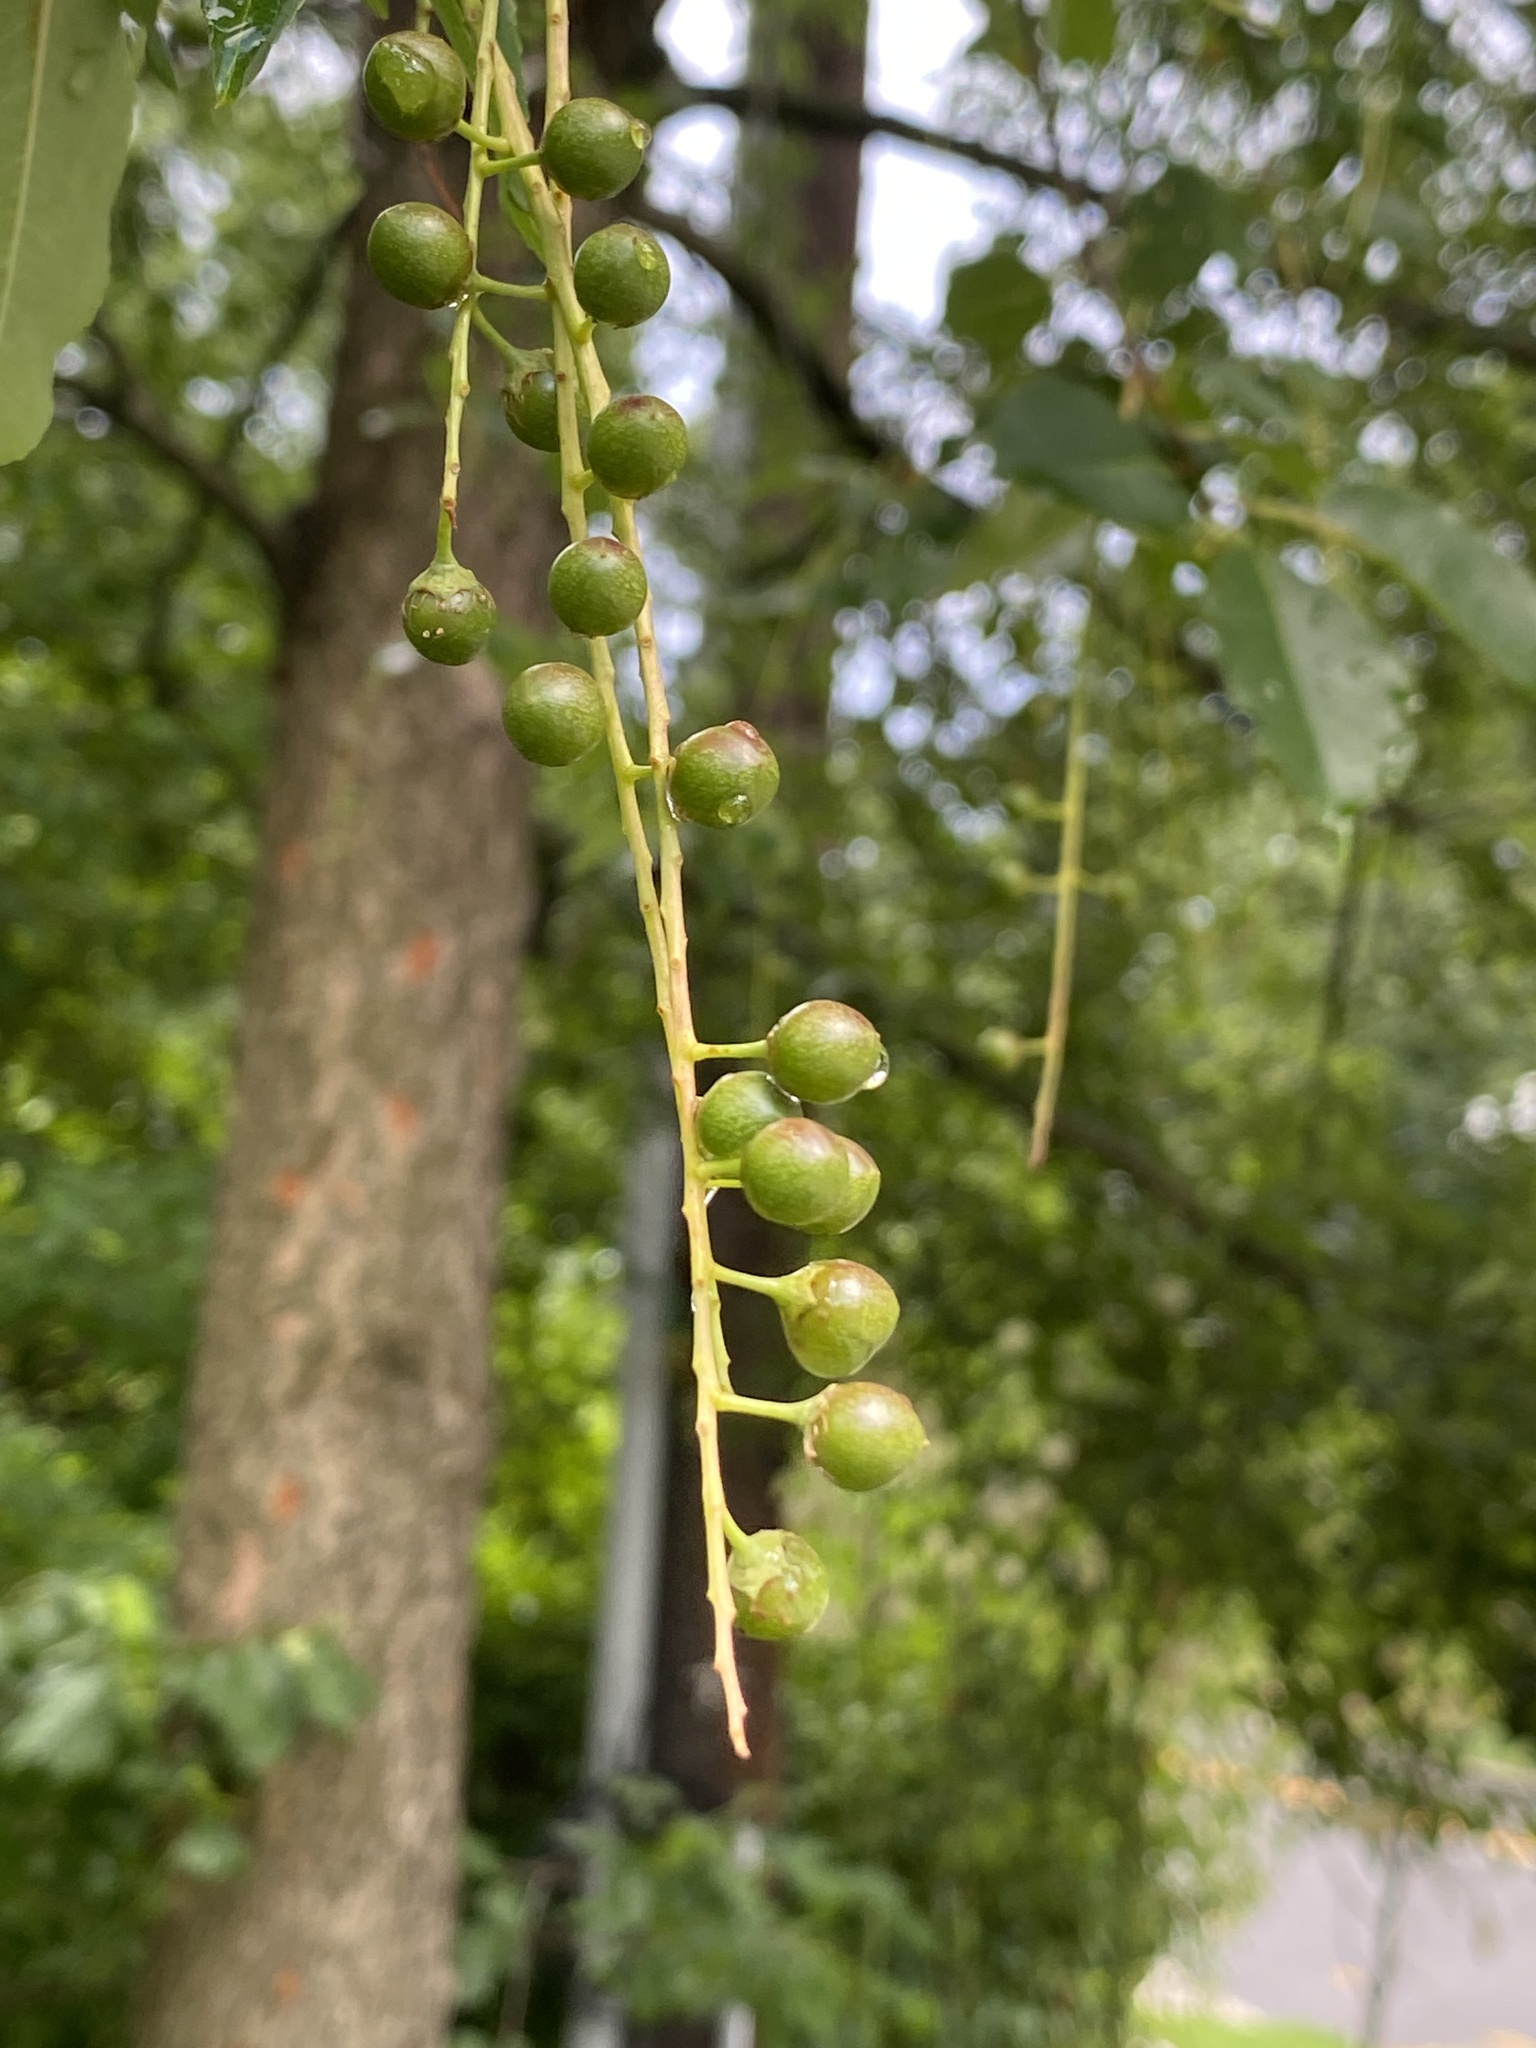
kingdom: Plantae
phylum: Tracheophyta
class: Magnoliopsida
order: Rosales
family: Rosaceae
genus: Prunus
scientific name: Prunus serotina
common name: Black cherry
